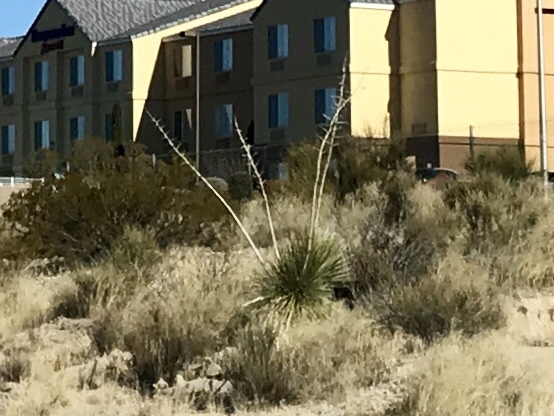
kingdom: Plantae
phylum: Tracheophyta
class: Liliopsida
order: Asparagales
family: Asparagaceae
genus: Yucca
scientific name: Yucca elata
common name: Palmella
